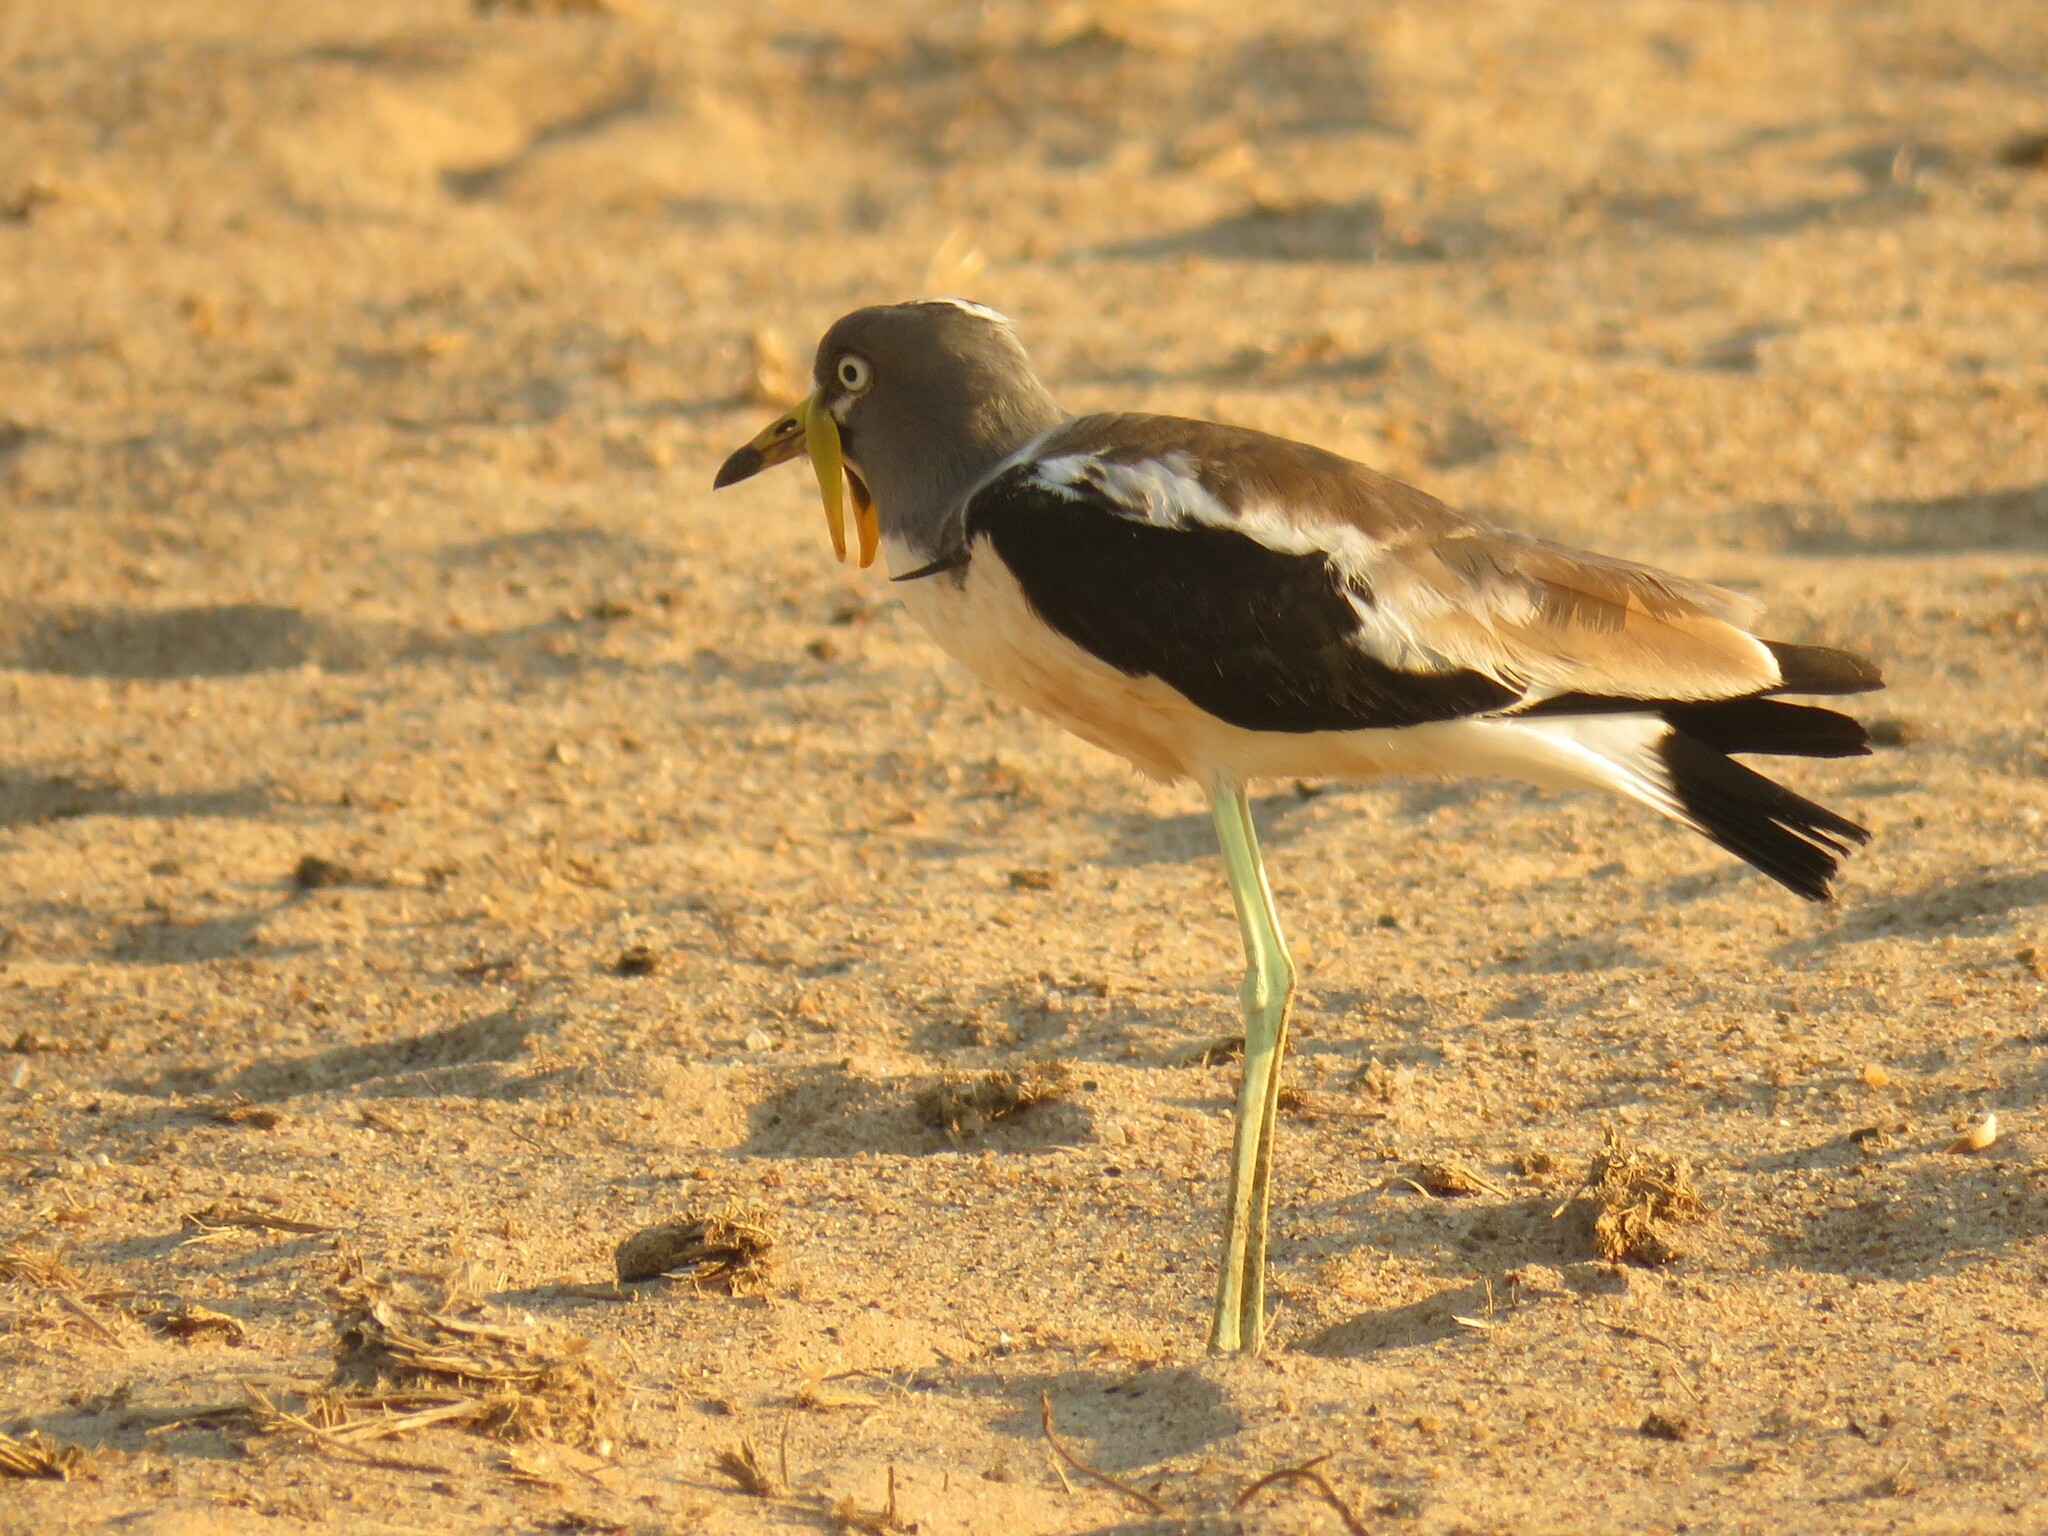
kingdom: Animalia
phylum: Chordata
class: Aves
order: Charadriiformes
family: Charadriidae
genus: Vanellus
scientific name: Vanellus albiceps
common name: White-crowned lapwing
